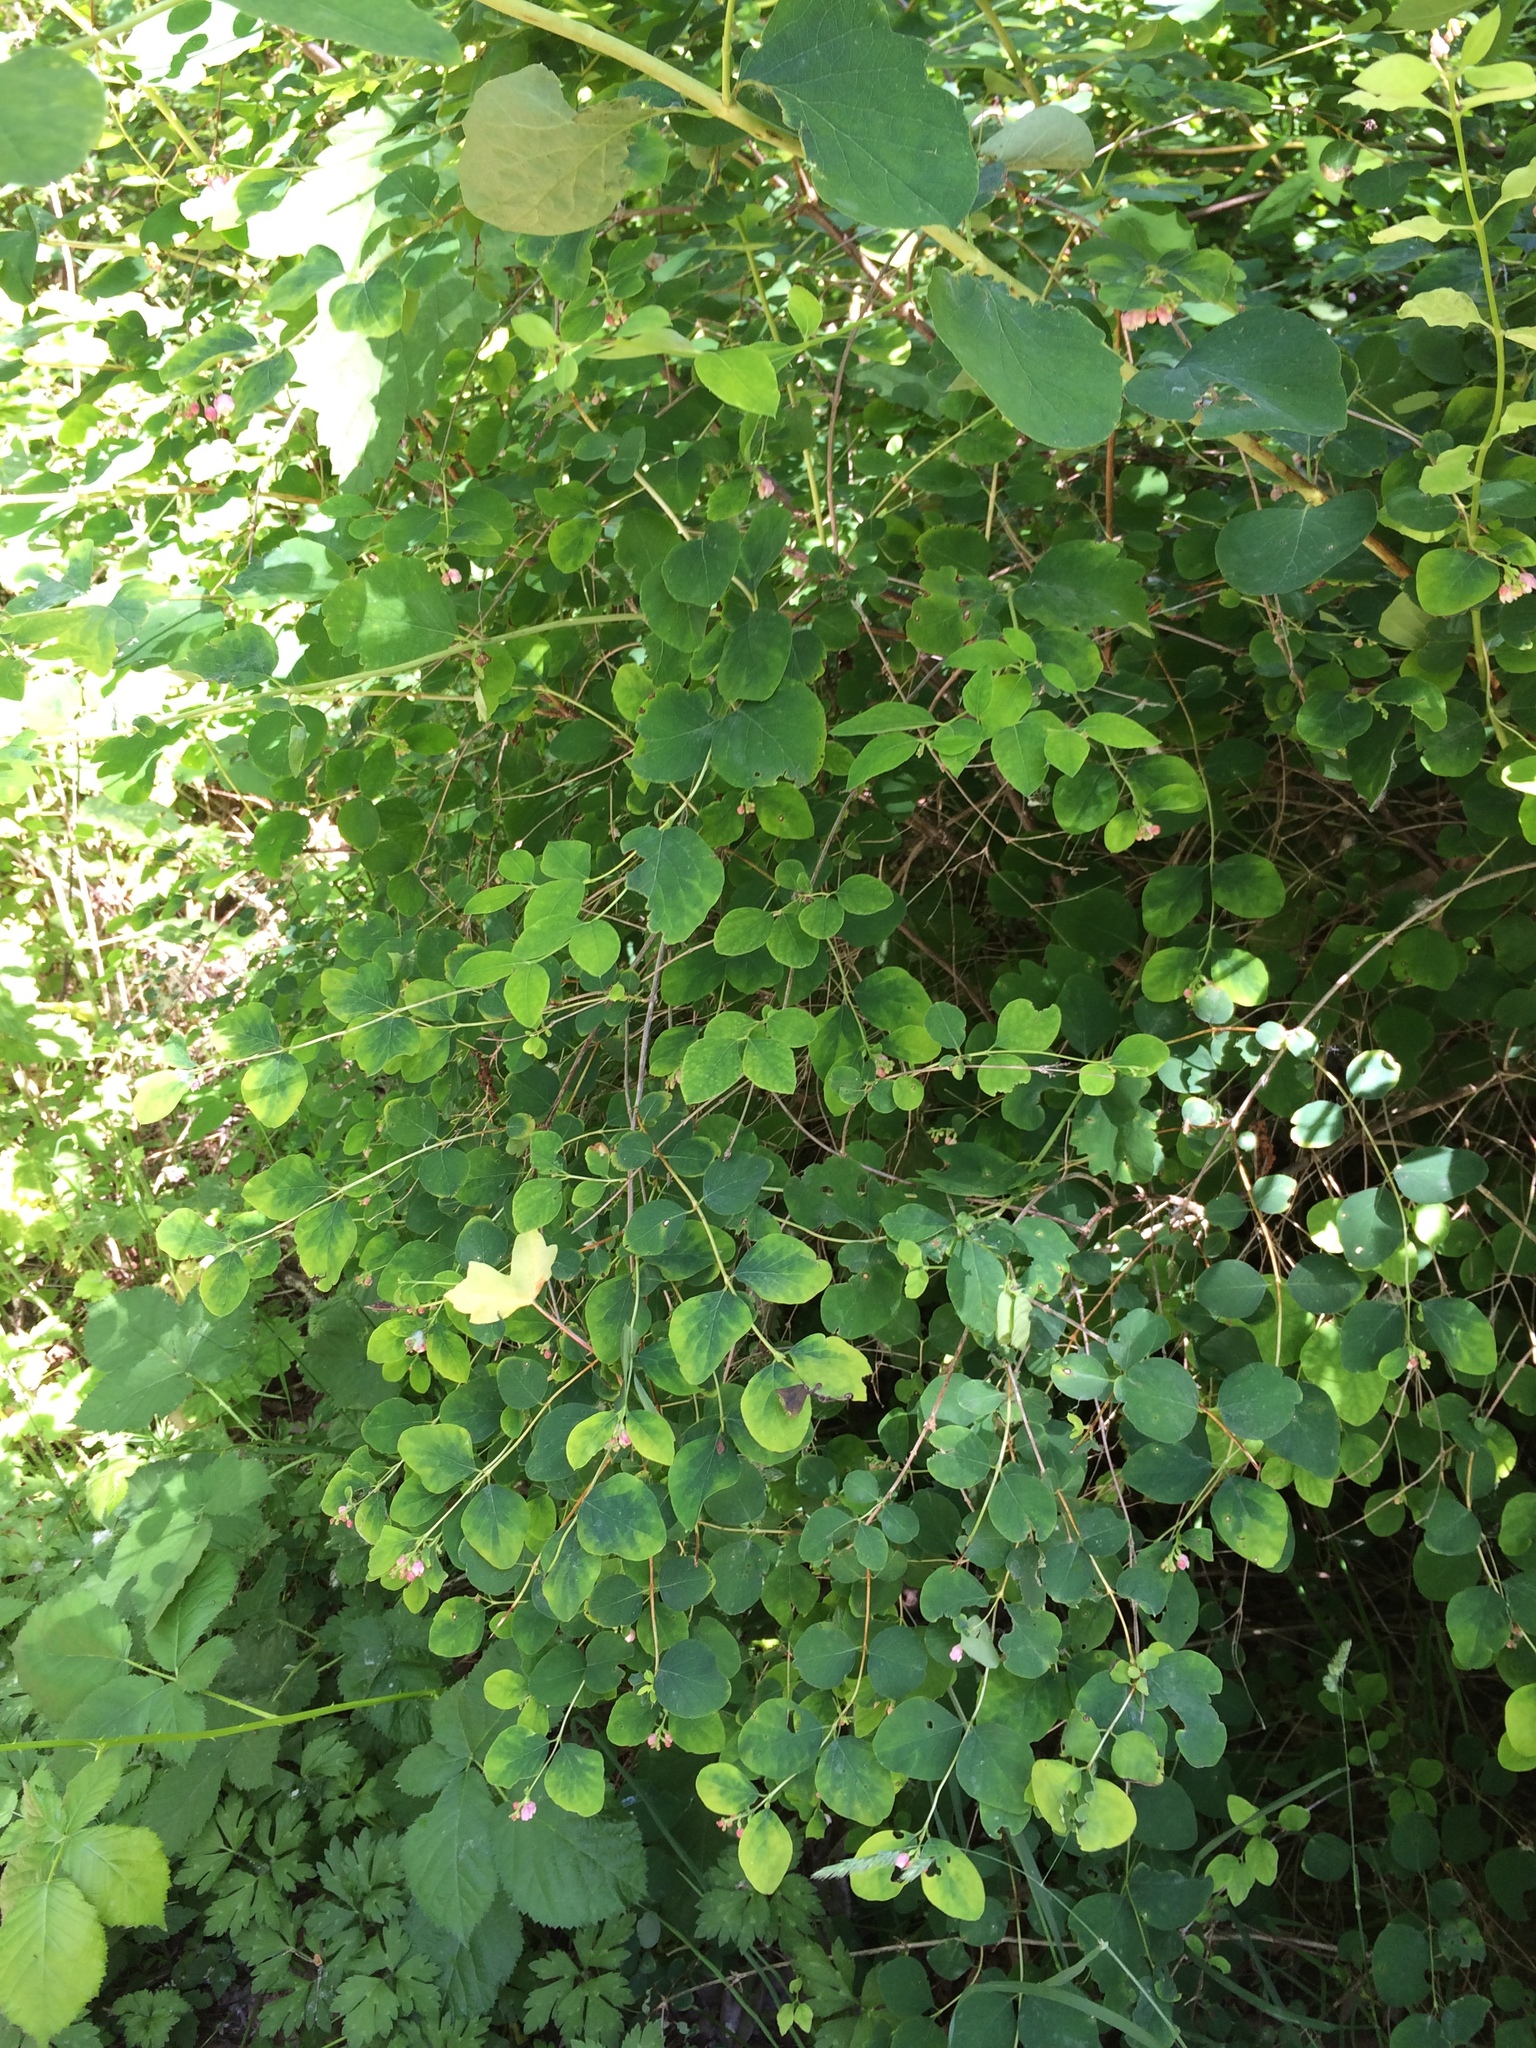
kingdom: Plantae
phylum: Tracheophyta
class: Magnoliopsida
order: Dipsacales
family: Caprifoliaceae
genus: Symphoricarpos
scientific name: Symphoricarpos albus
